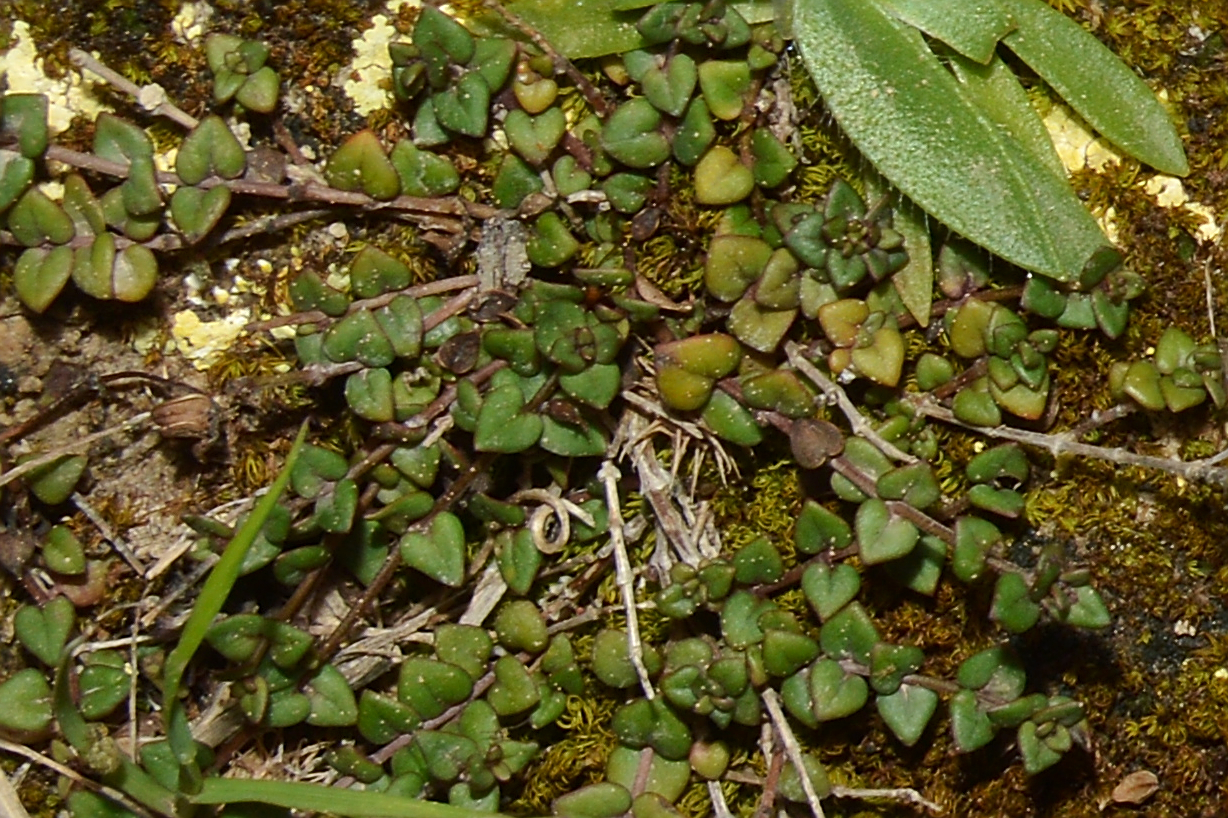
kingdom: Plantae
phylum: Tracheophyta
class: Magnoliopsida
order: Lamiales
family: Lamiaceae
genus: Micromeria
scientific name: Micromeria filiformis
